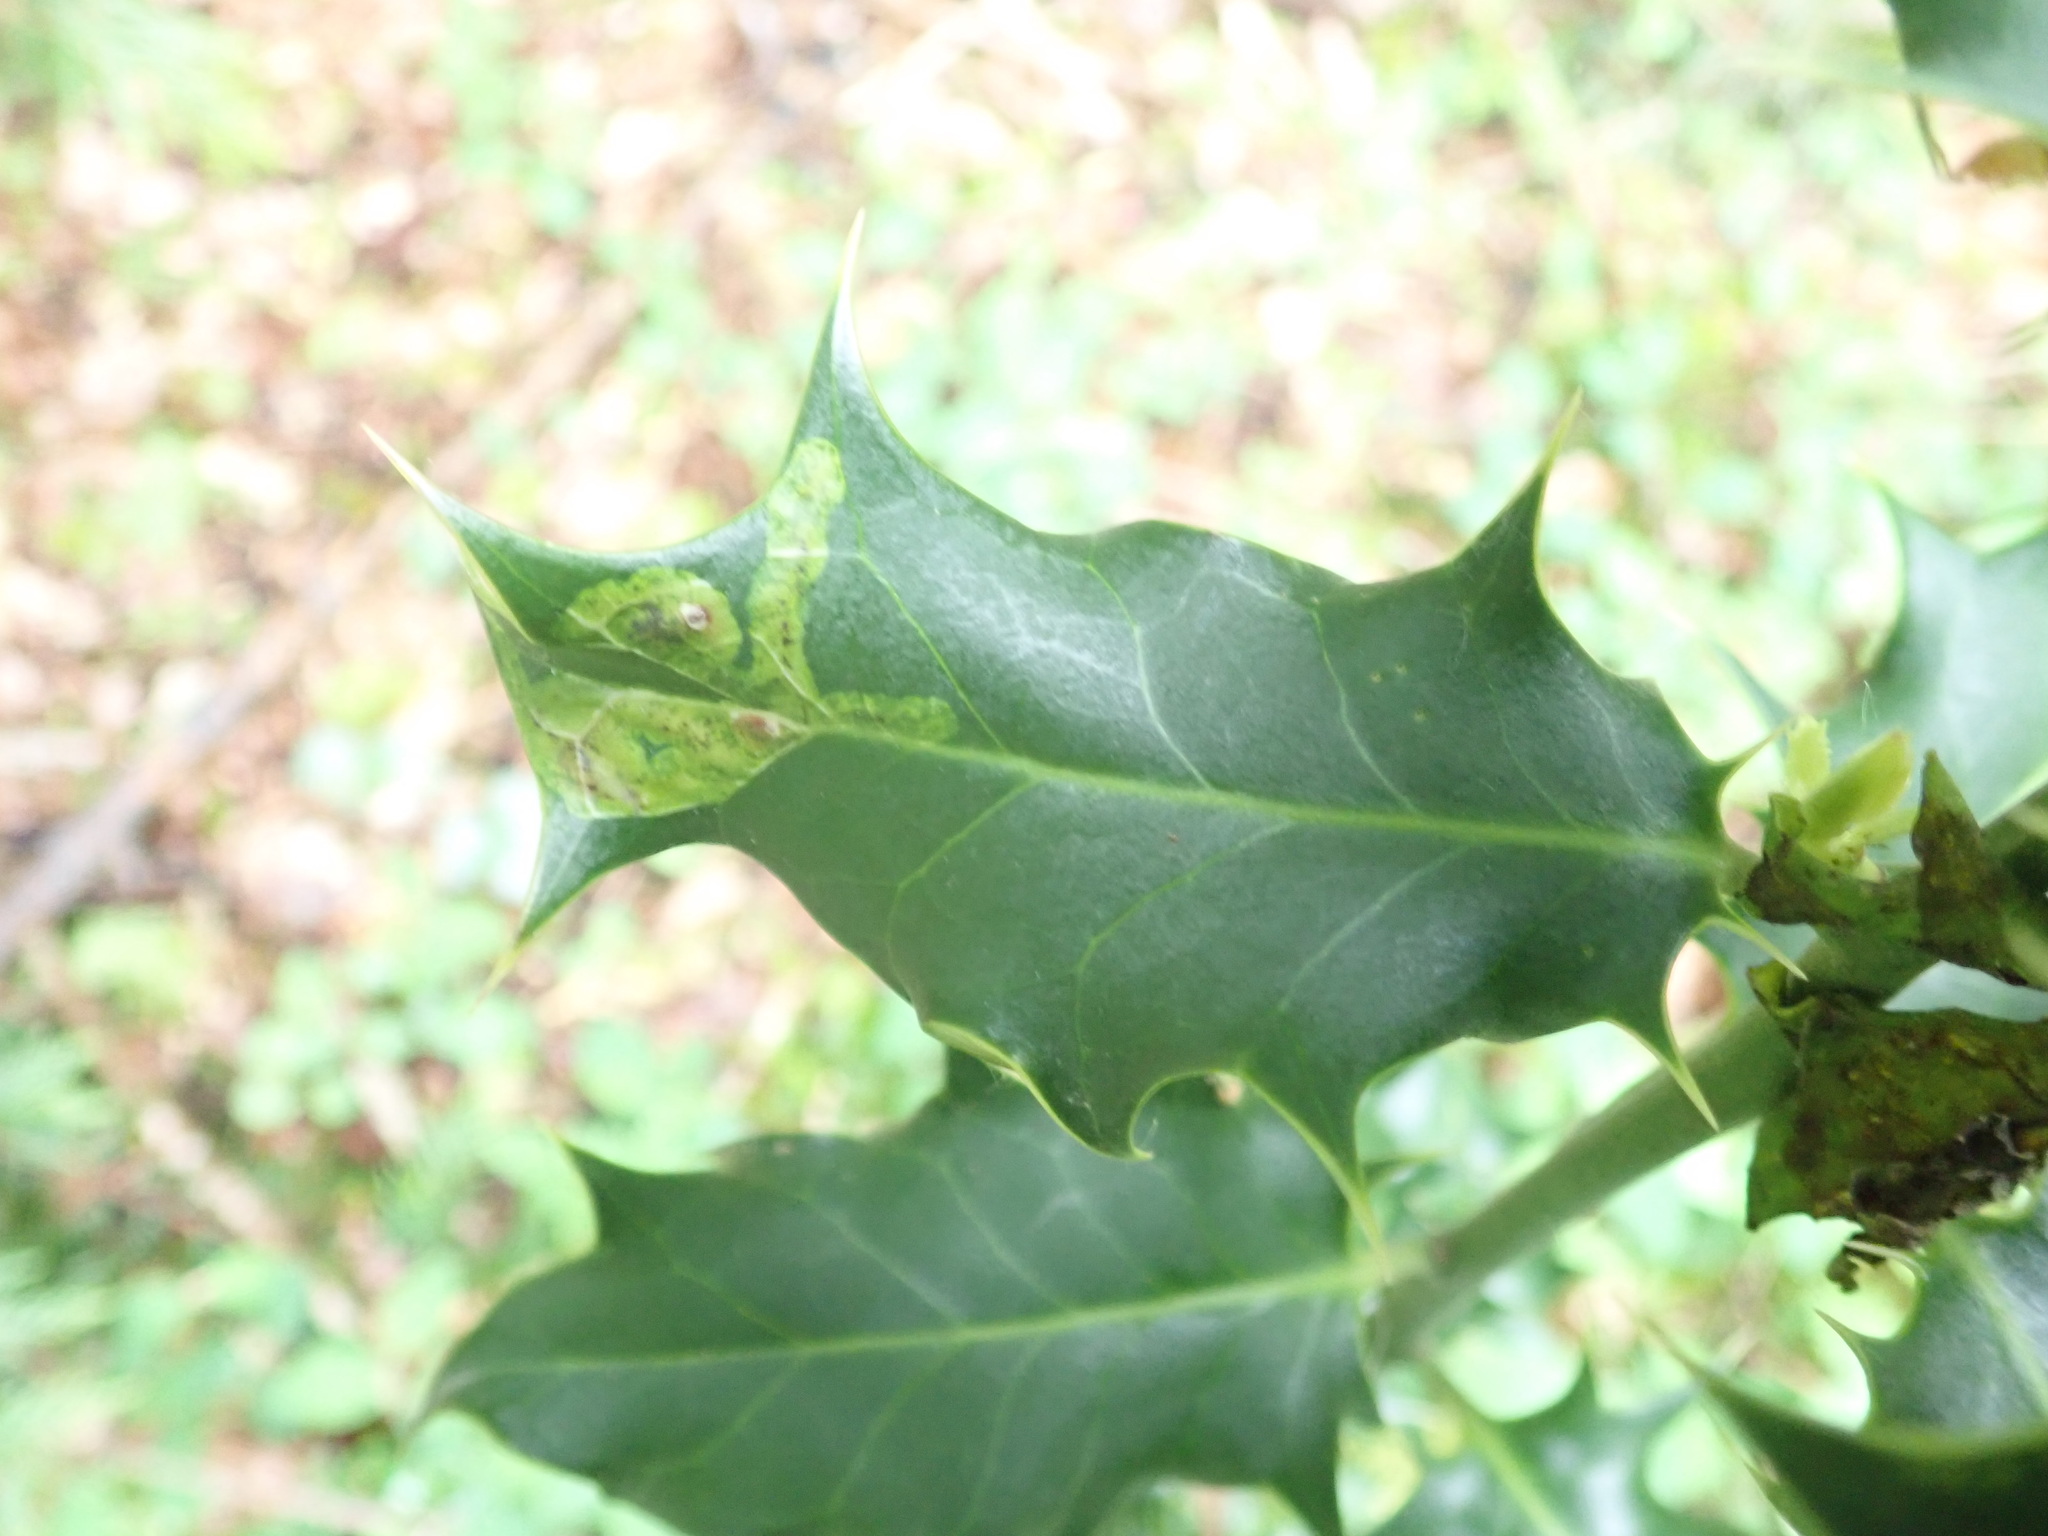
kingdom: Animalia
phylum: Arthropoda
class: Insecta
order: Diptera
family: Agromyzidae
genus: Phytomyza
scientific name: Phytomyza ilicis
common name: Holly leafminer
